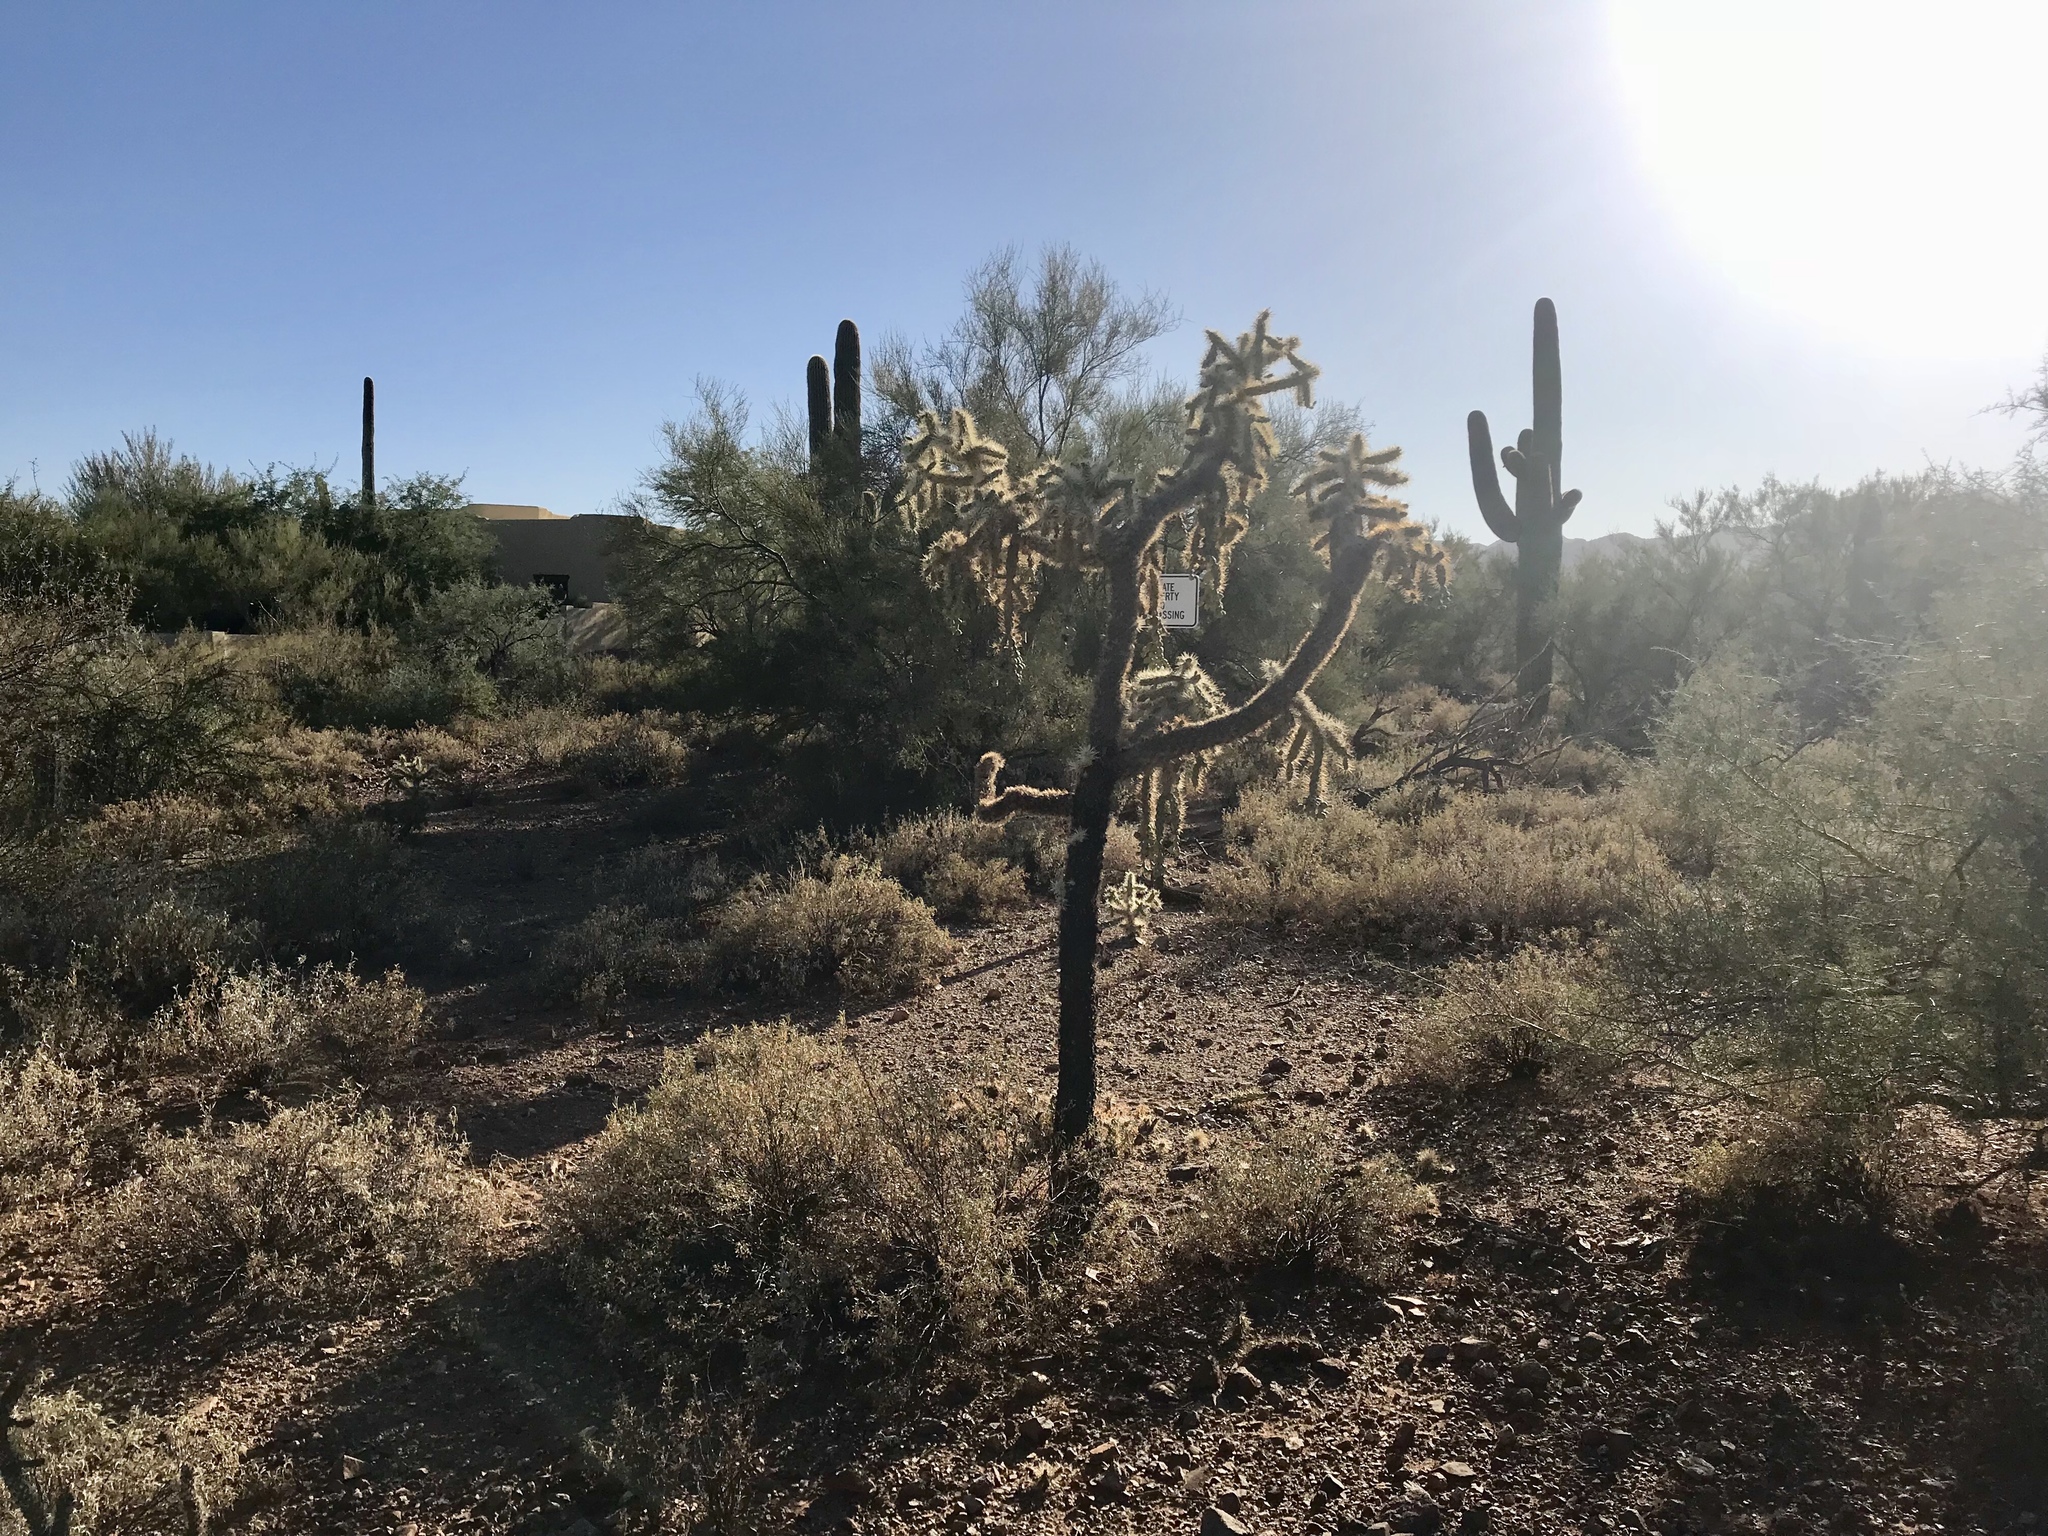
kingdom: Plantae
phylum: Tracheophyta
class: Magnoliopsida
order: Caryophyllales
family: Cactaceae
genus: Cylindropuntia
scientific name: Cylindropuntia fulgida
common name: Jumping cholla
